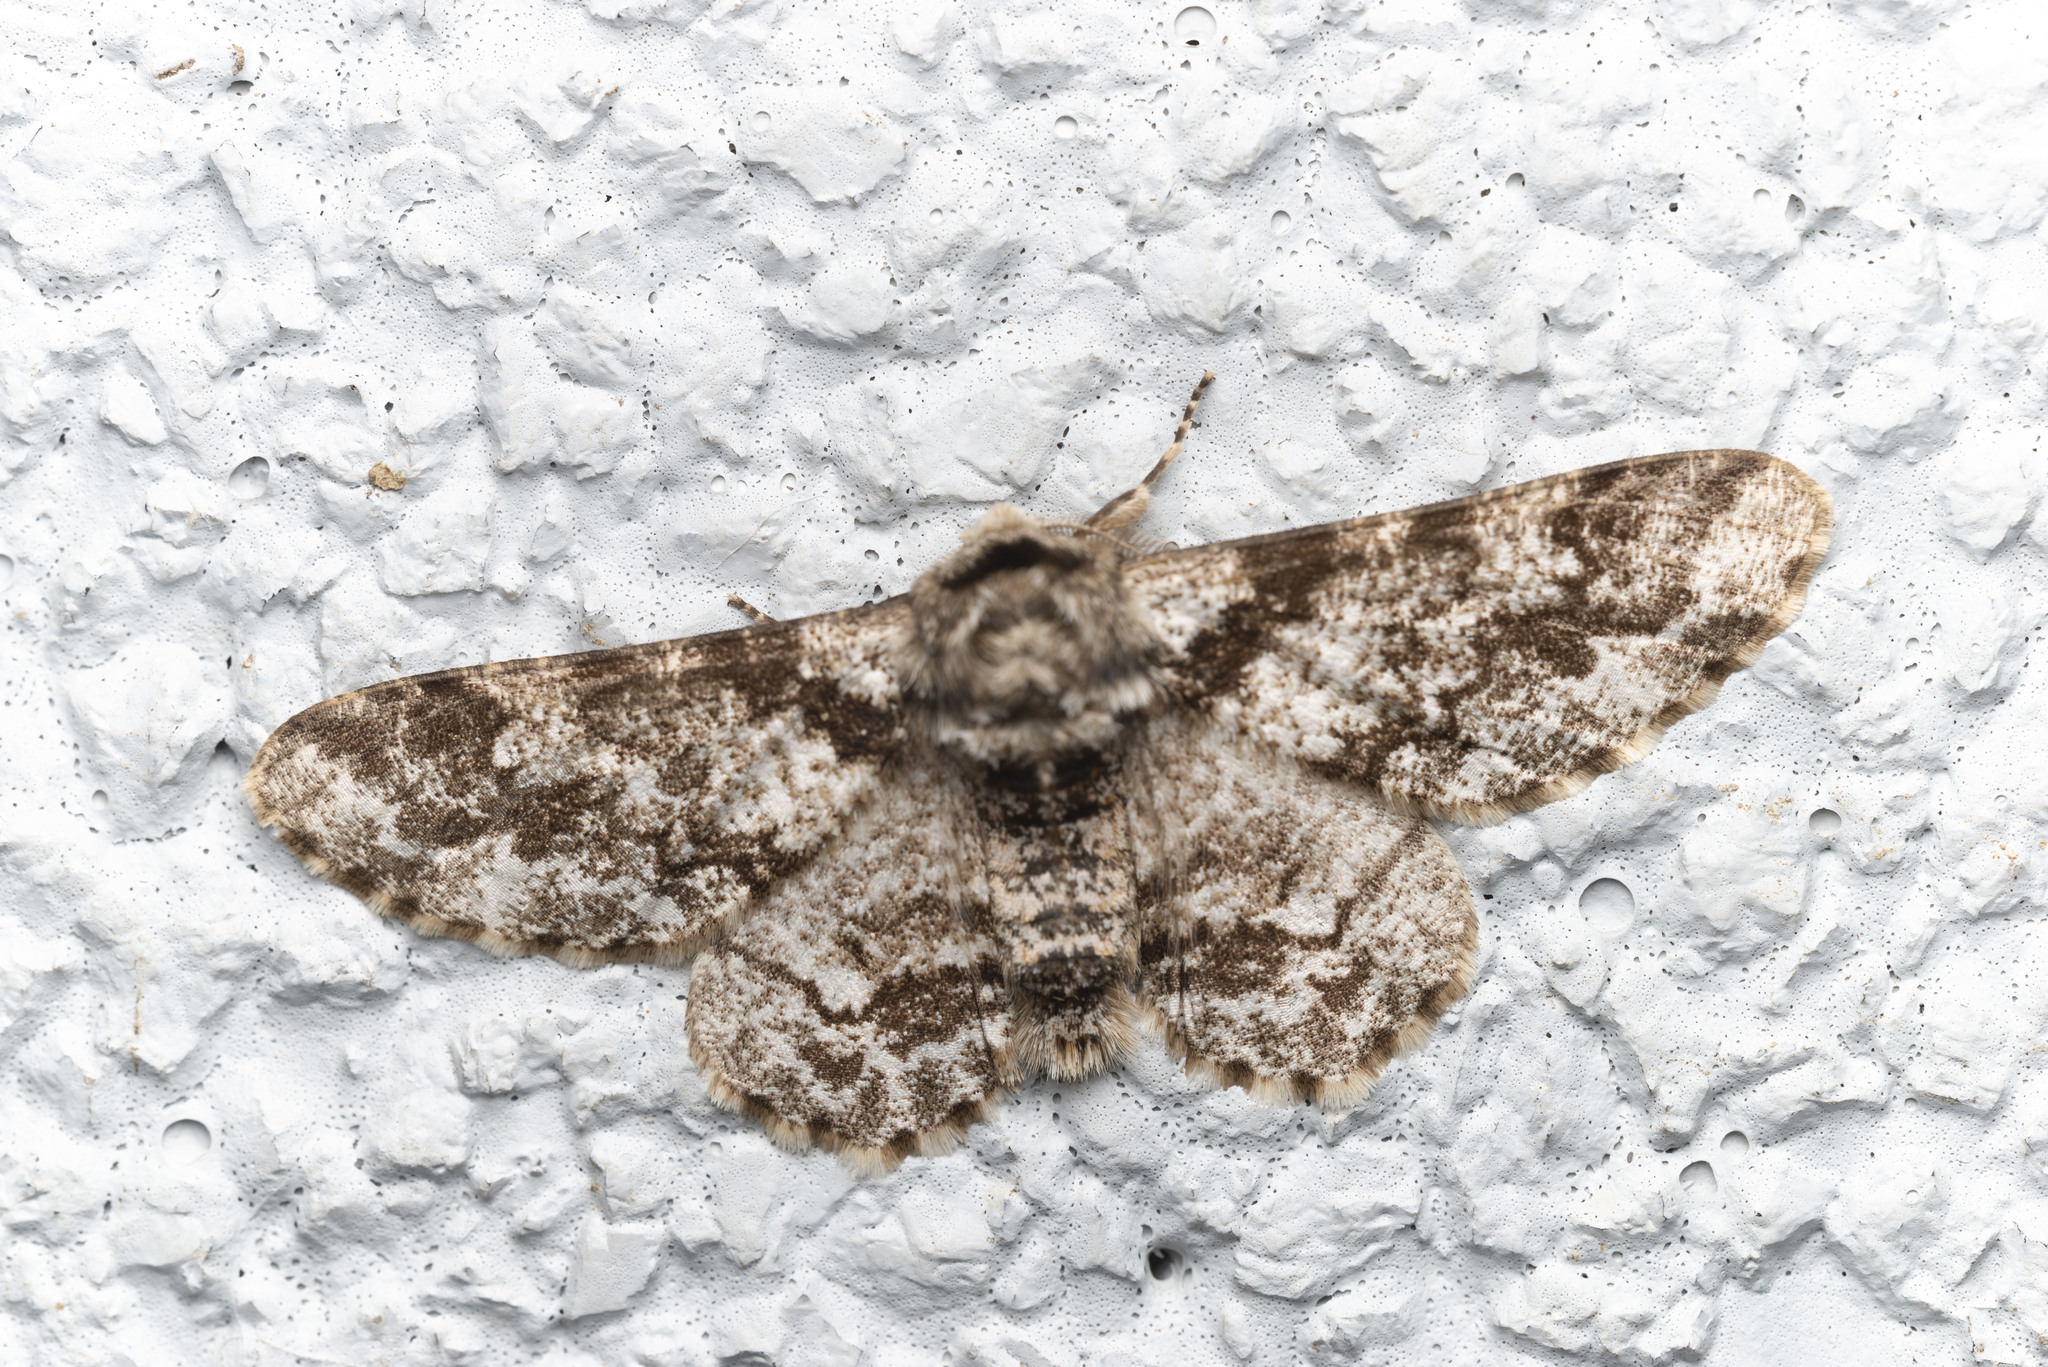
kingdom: Animalia
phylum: Arthropoda
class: Insecta
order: Lepidoptera
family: Geometridae
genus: Biston
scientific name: Biston marginata
